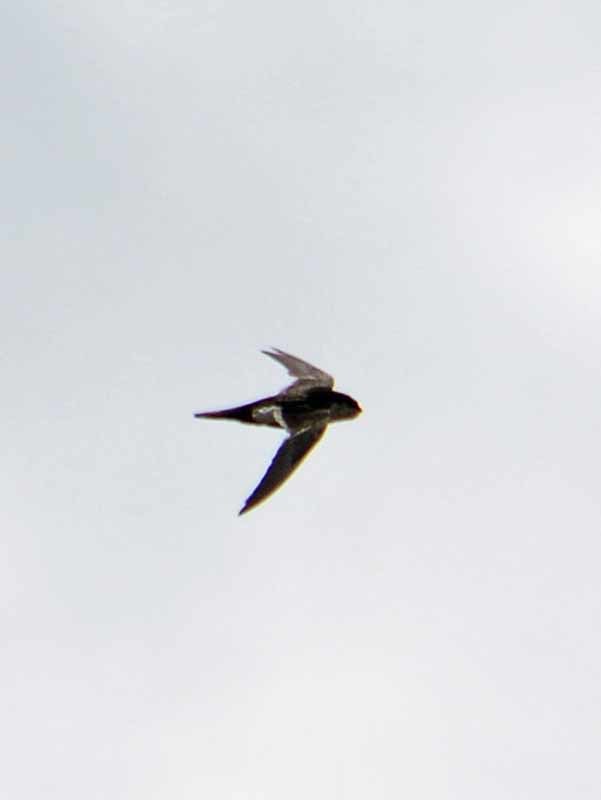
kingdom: Animalia
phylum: Chordata
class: Aves
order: Apodiformes
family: Apodidae
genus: Aeronautes
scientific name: Aeronautes saxatalis
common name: White-throated swift
